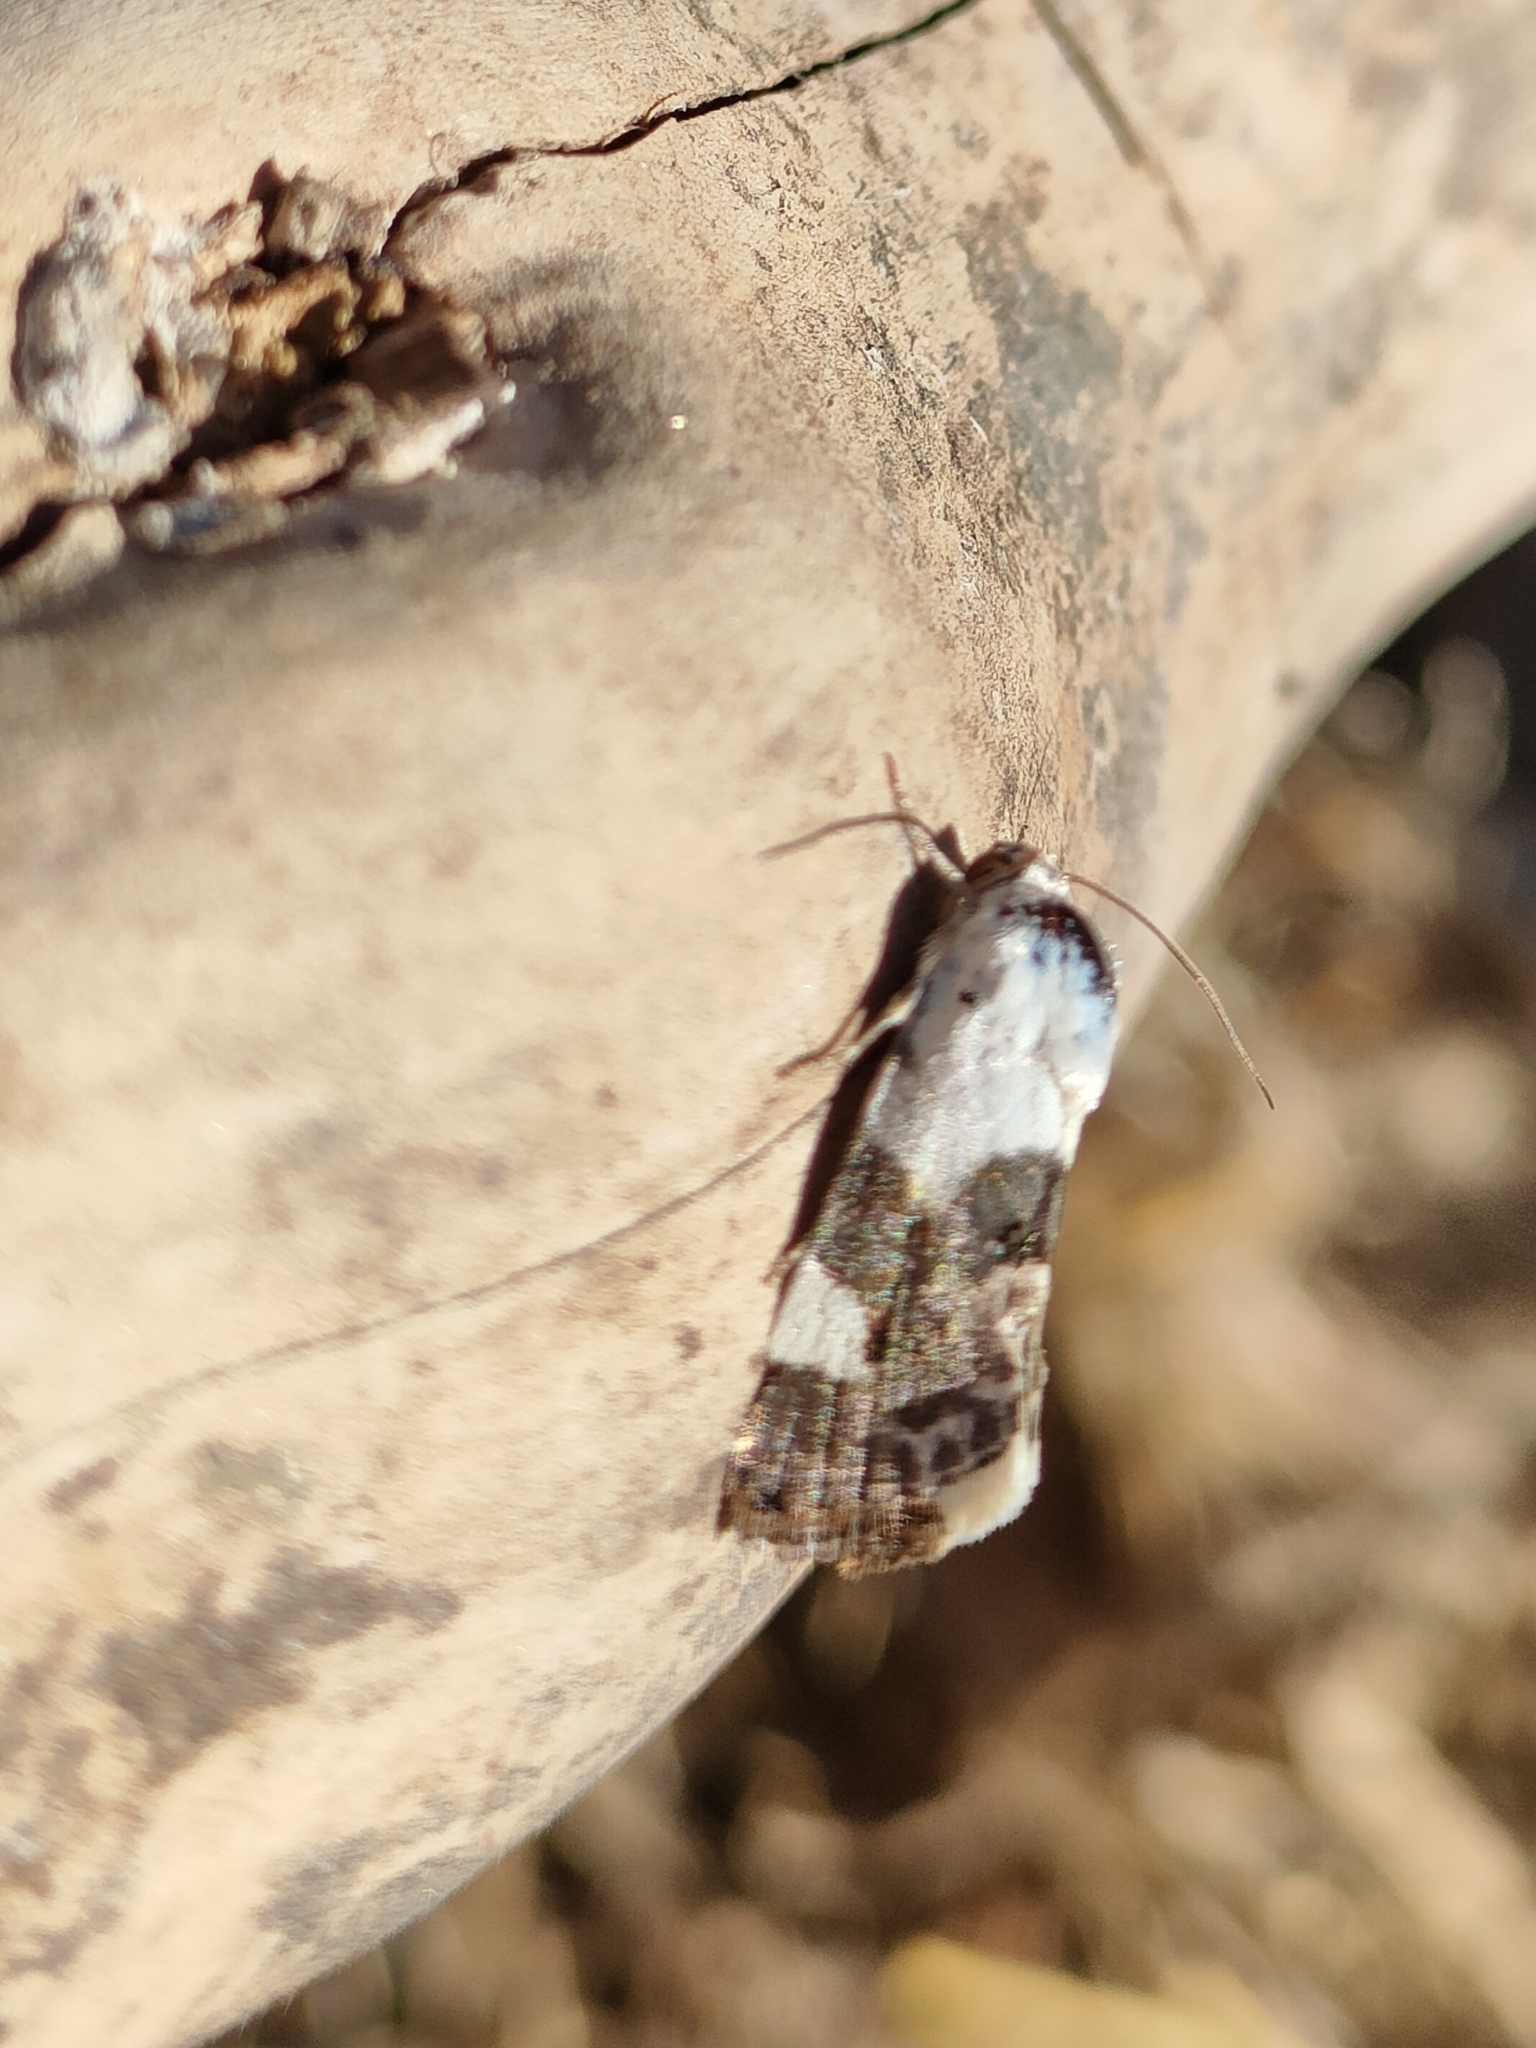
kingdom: Animalia
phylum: Arthropoda
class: Insecta
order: Lepidoptera
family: Noctuidae
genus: Acontia
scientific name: Acontia lucida
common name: Pale shoulder
